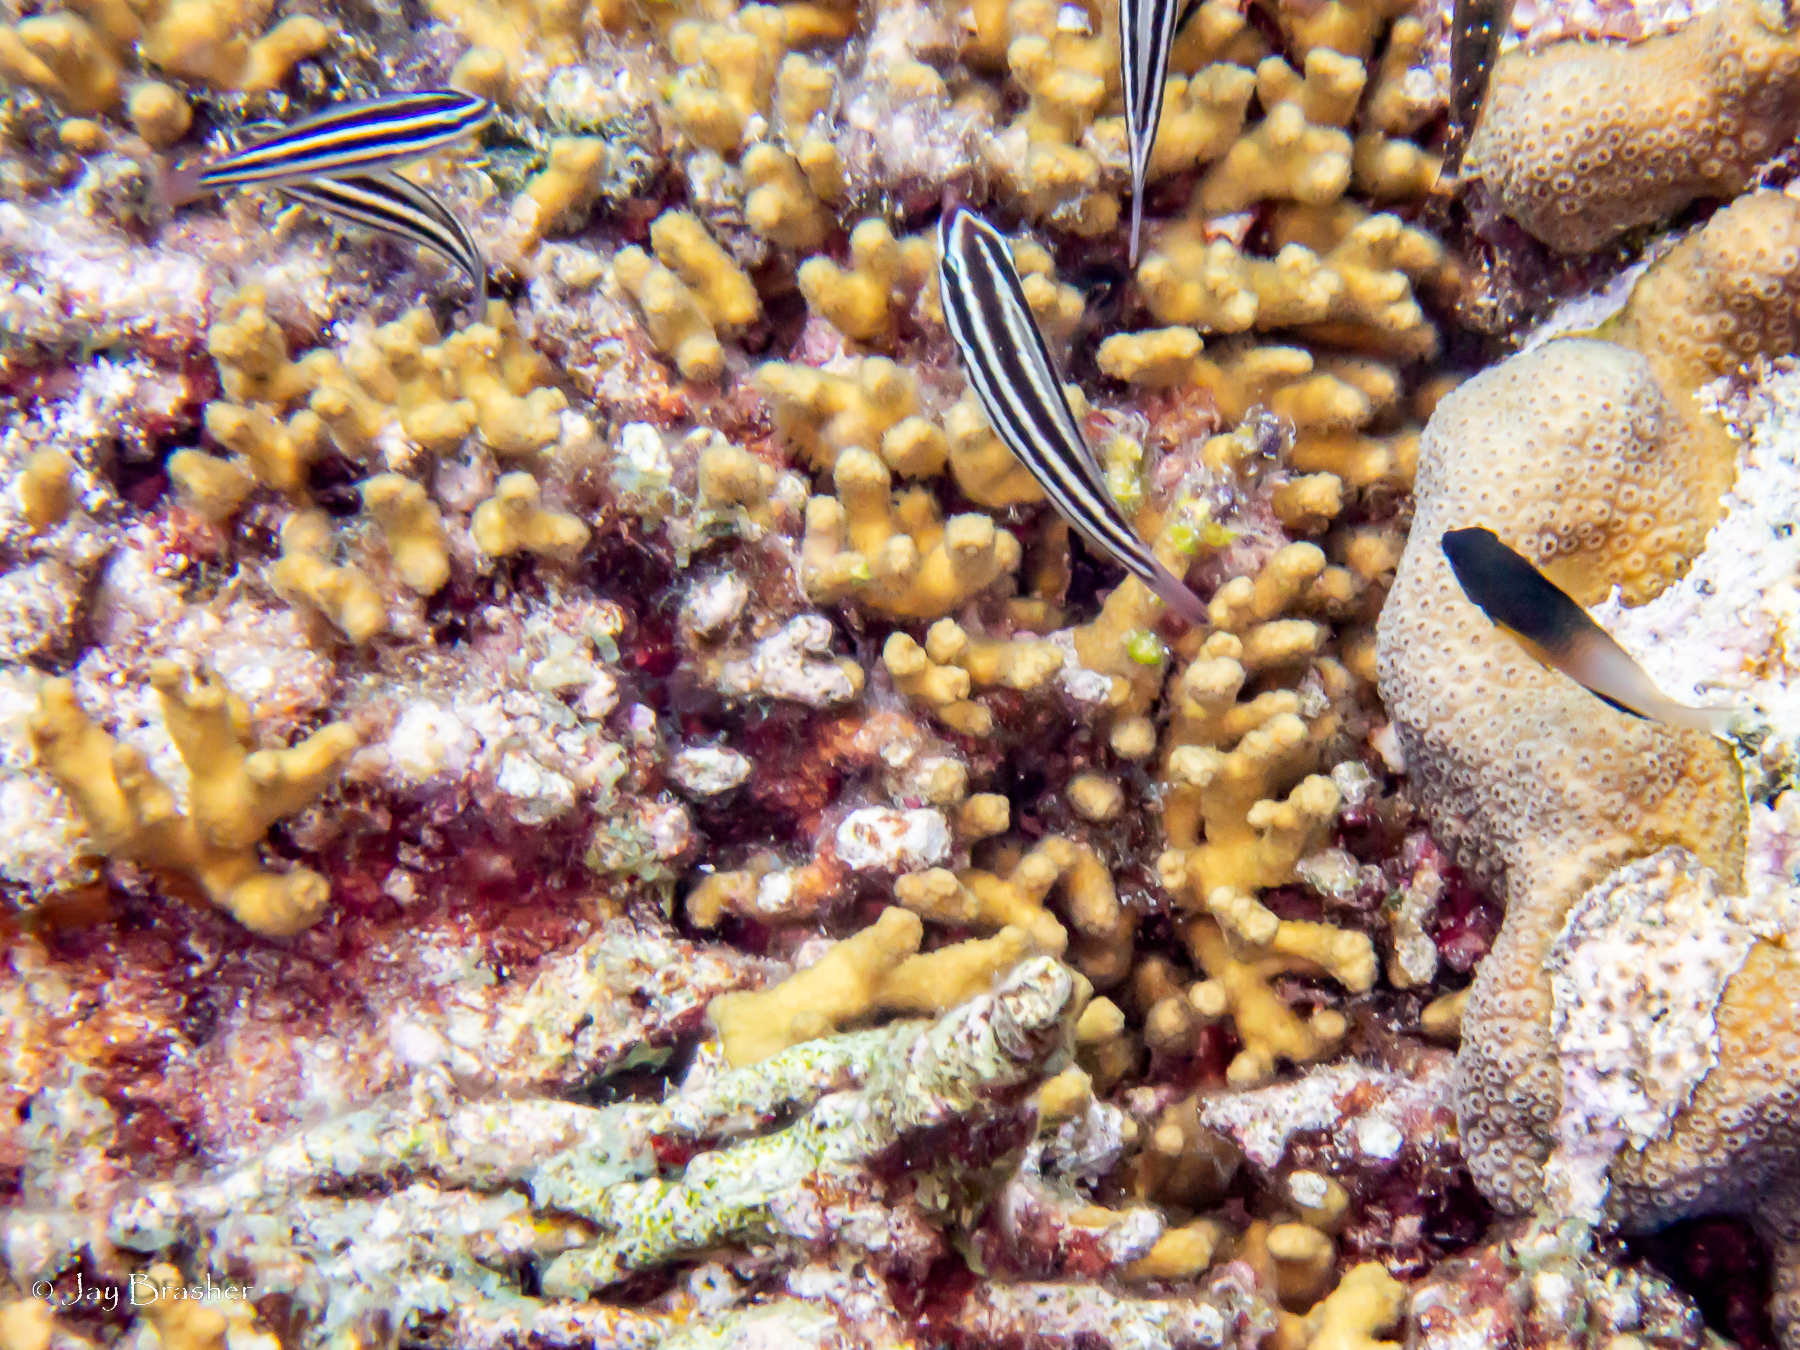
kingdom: Animalia
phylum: Chordata
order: Perciformes
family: Pomacentridae
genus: Stegastes
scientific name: Stegastes partitus
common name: Bicolor damselfish
